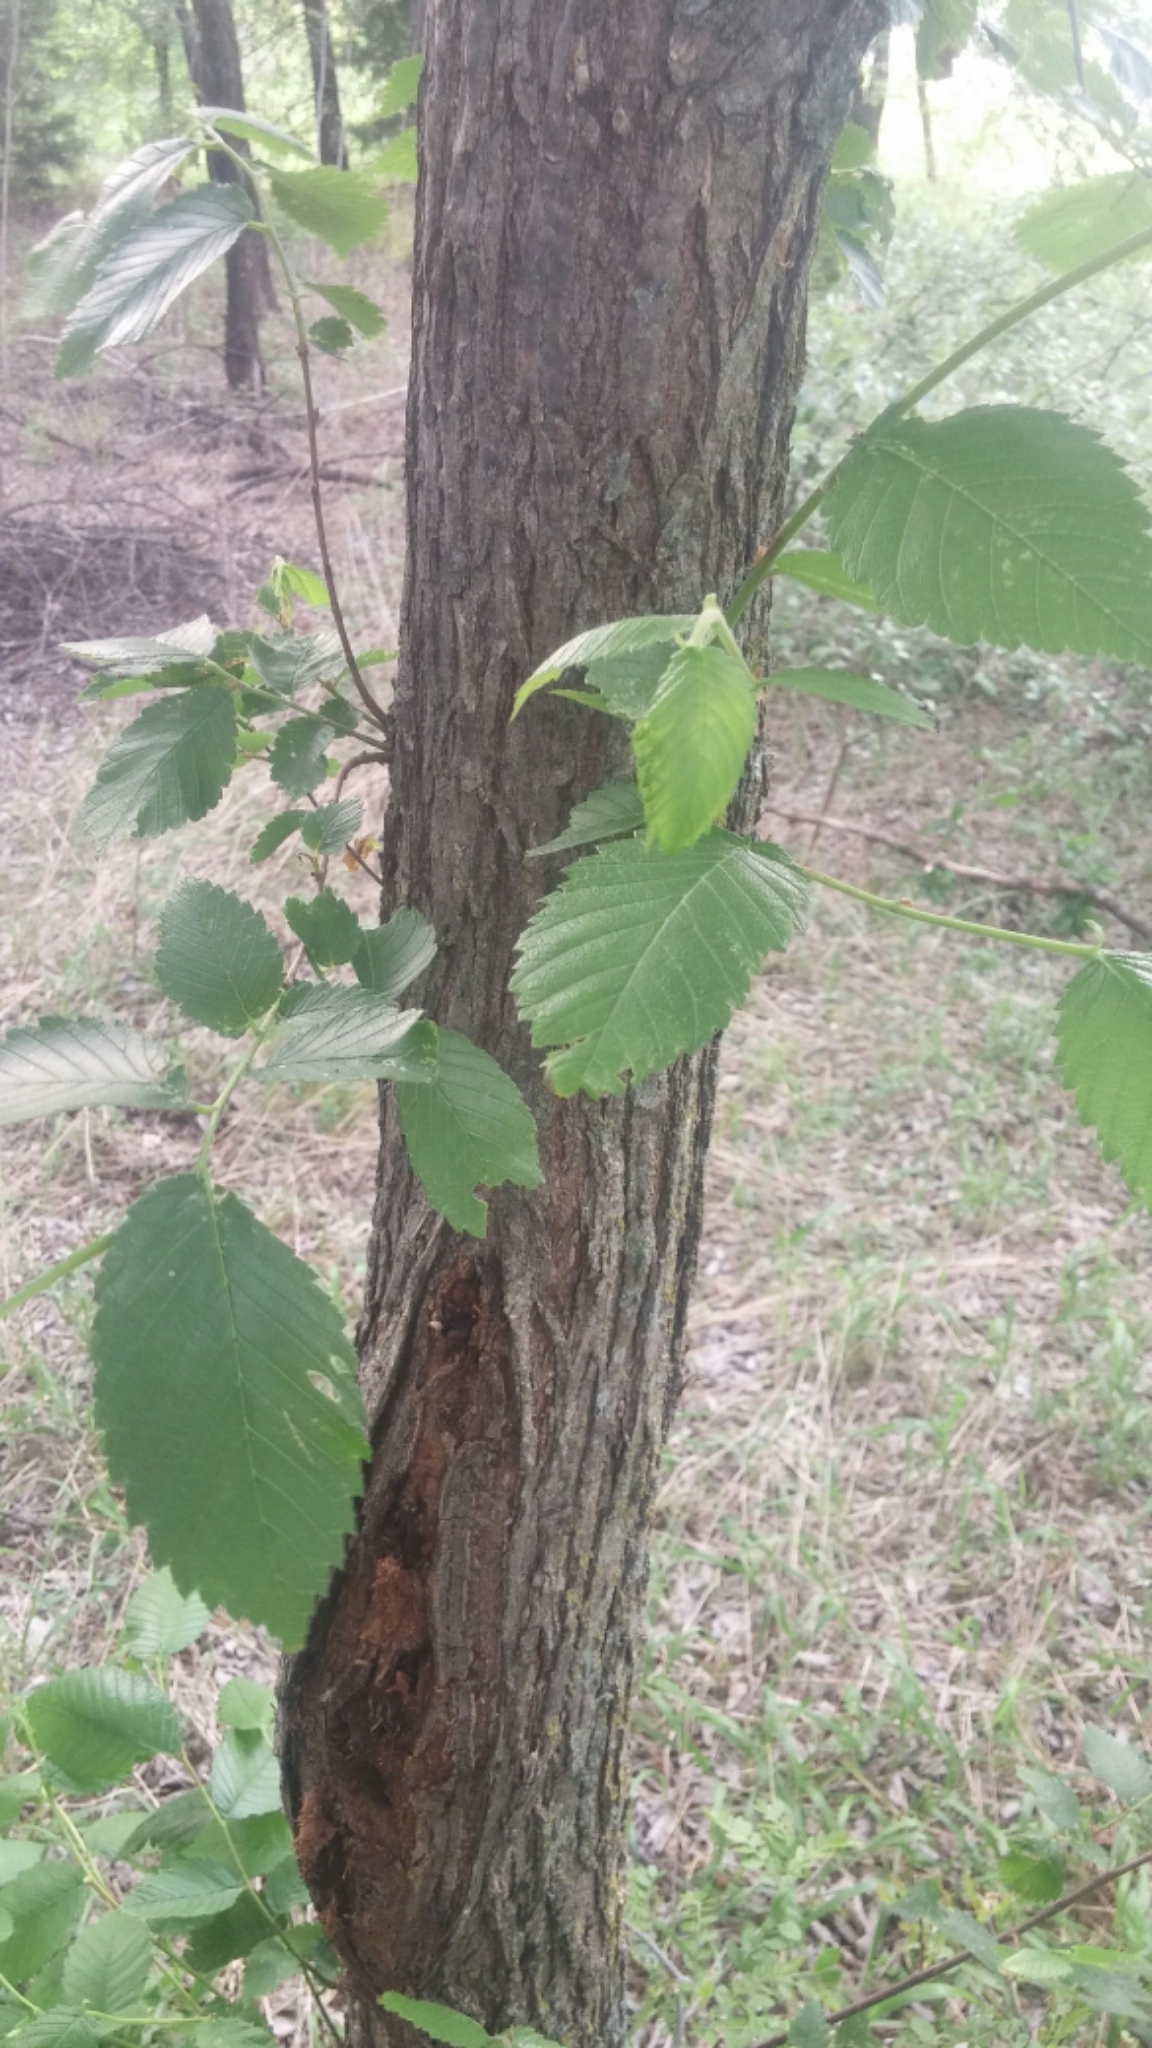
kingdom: Plantae
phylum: Tracheophyta
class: Magnoliopsida
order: Rosales
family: Ulmaceae
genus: Ulmus
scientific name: Ulmus americana
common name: American elm
